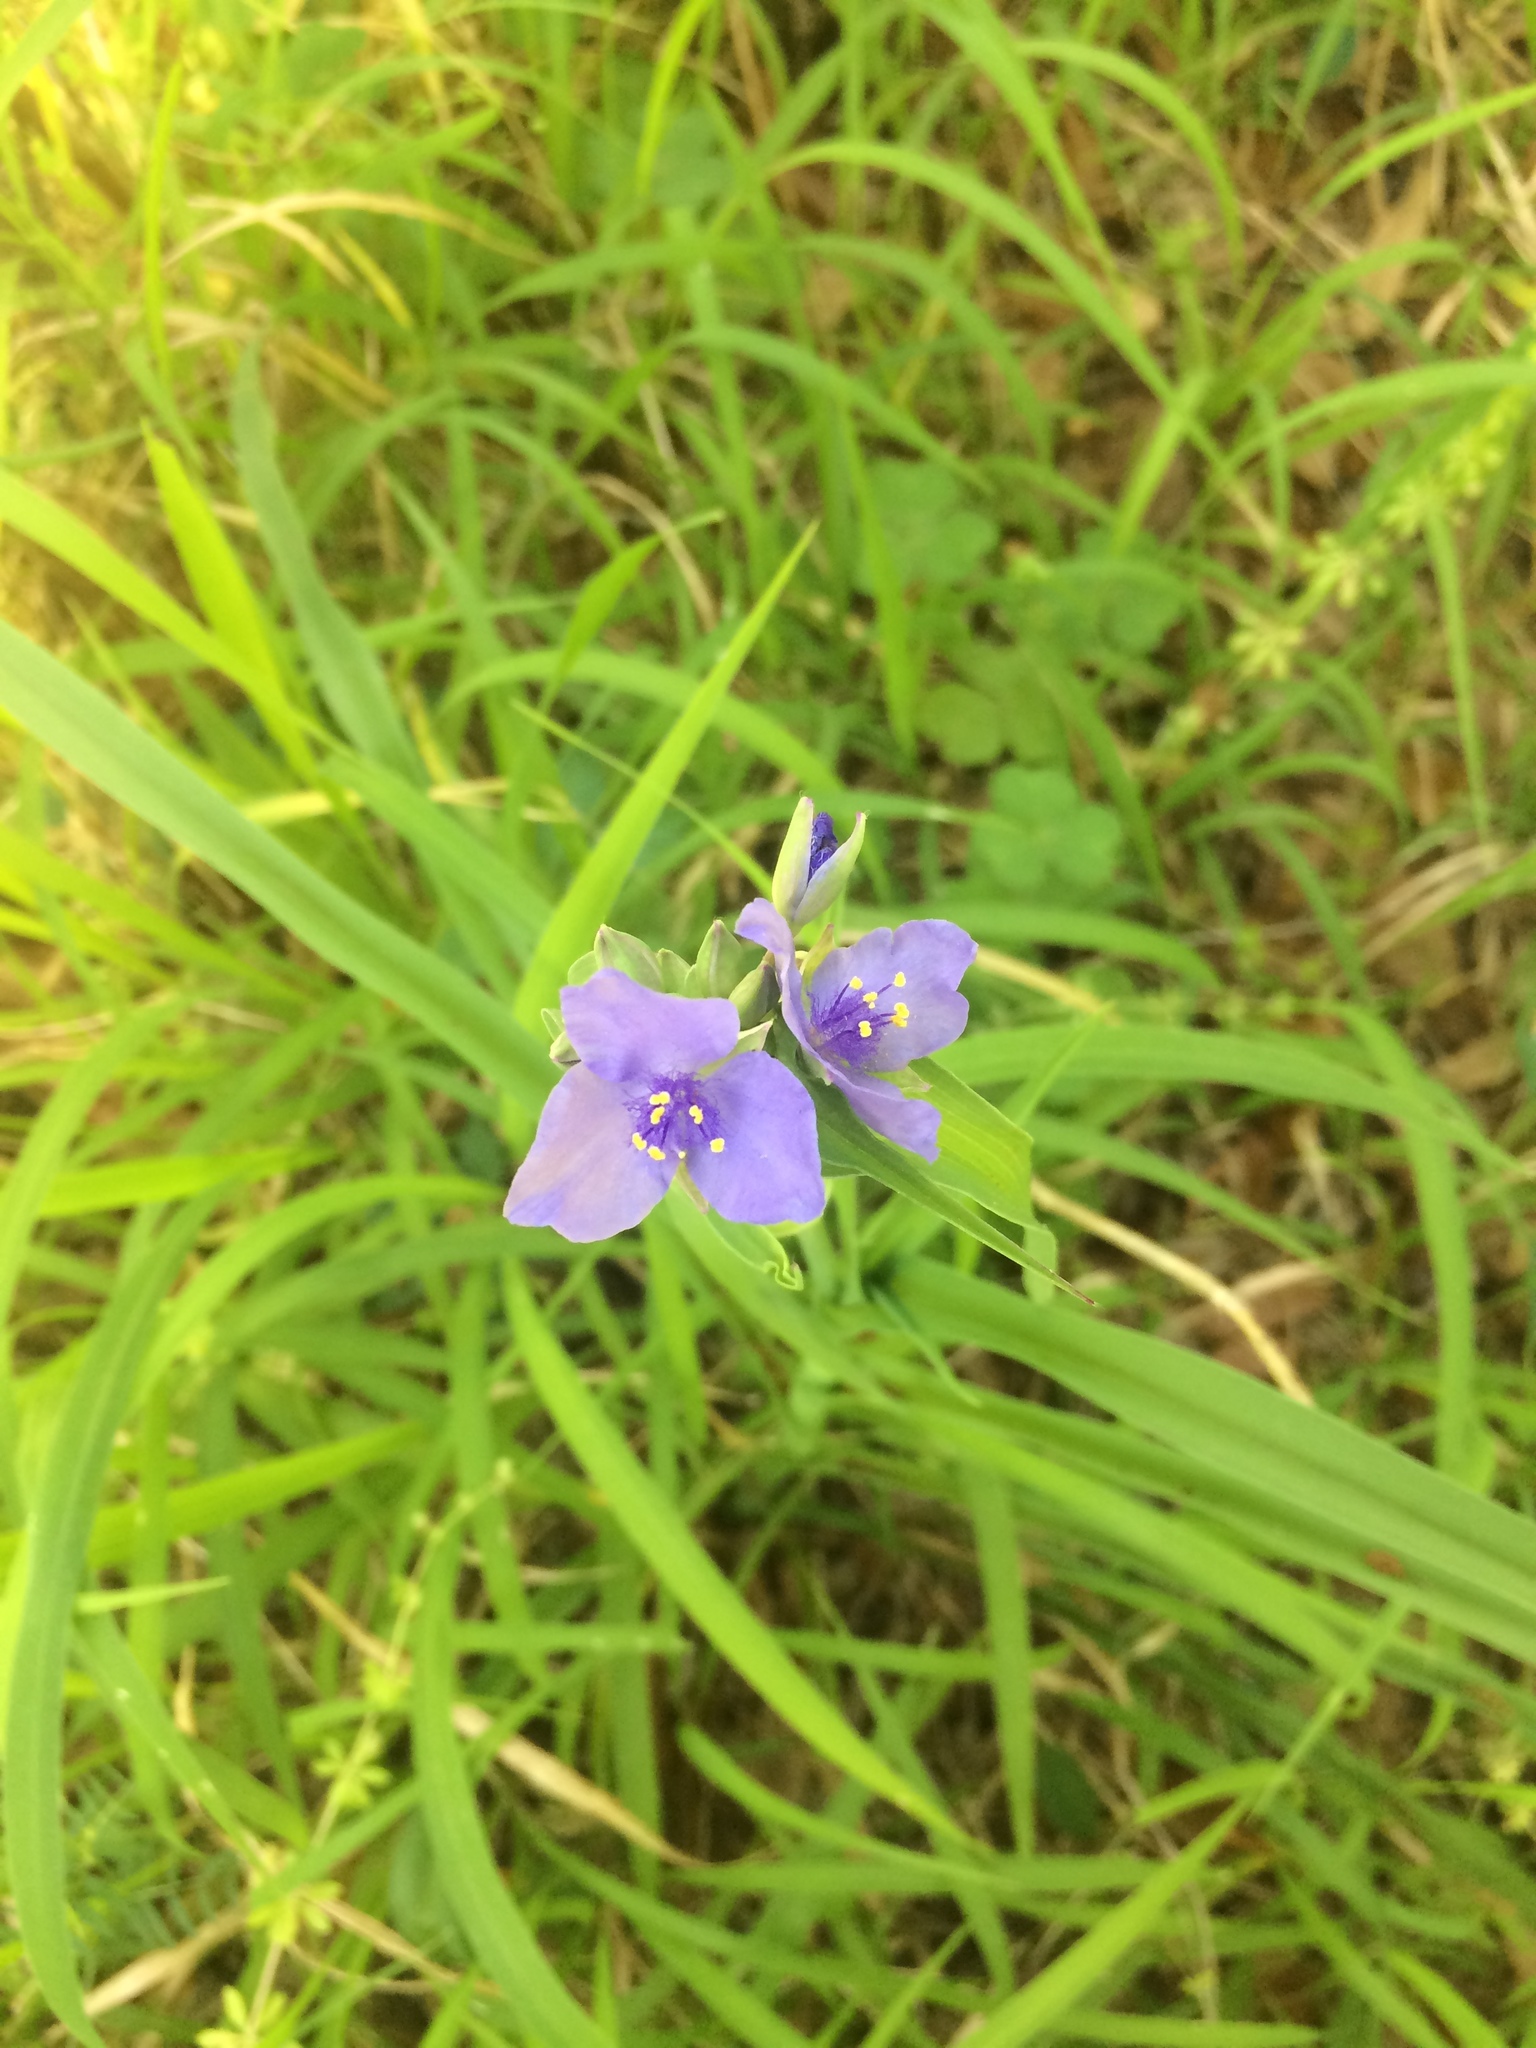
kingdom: Plantae
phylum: Tracheophyta
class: Liliopsida
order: Commelinales
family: Commelinaceae
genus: Tradescantia
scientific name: Tradescantia ohiensis
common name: Ohio spiderwort
